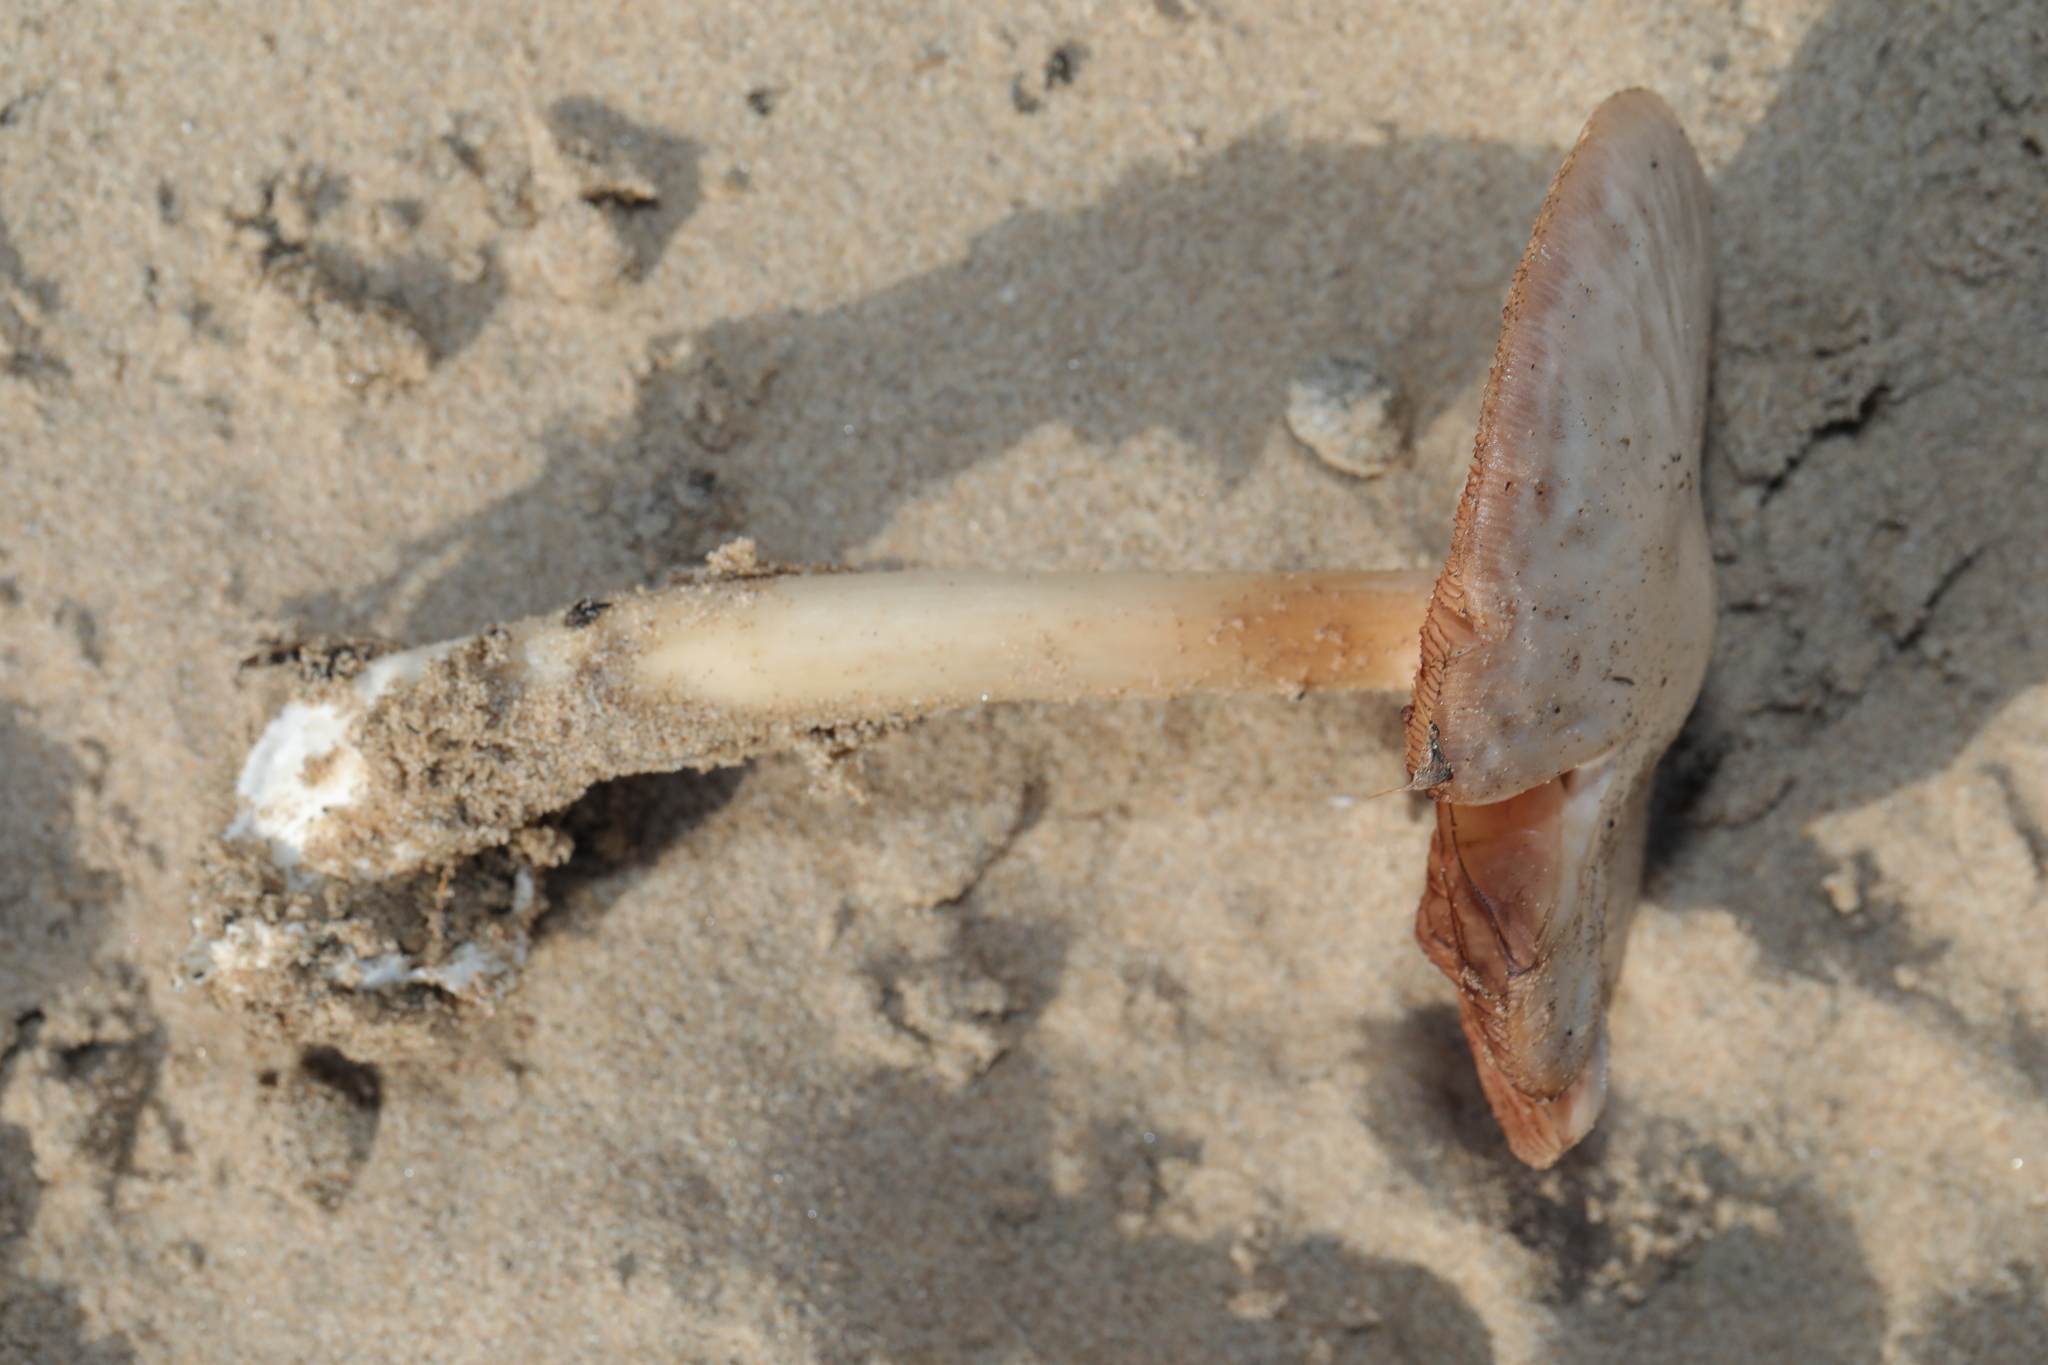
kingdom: Fungi
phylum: Basidiomycota
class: Agaricomycetes
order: Agaricales
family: Pluteaceae
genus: Volvopluteus
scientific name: Volvopluteus
